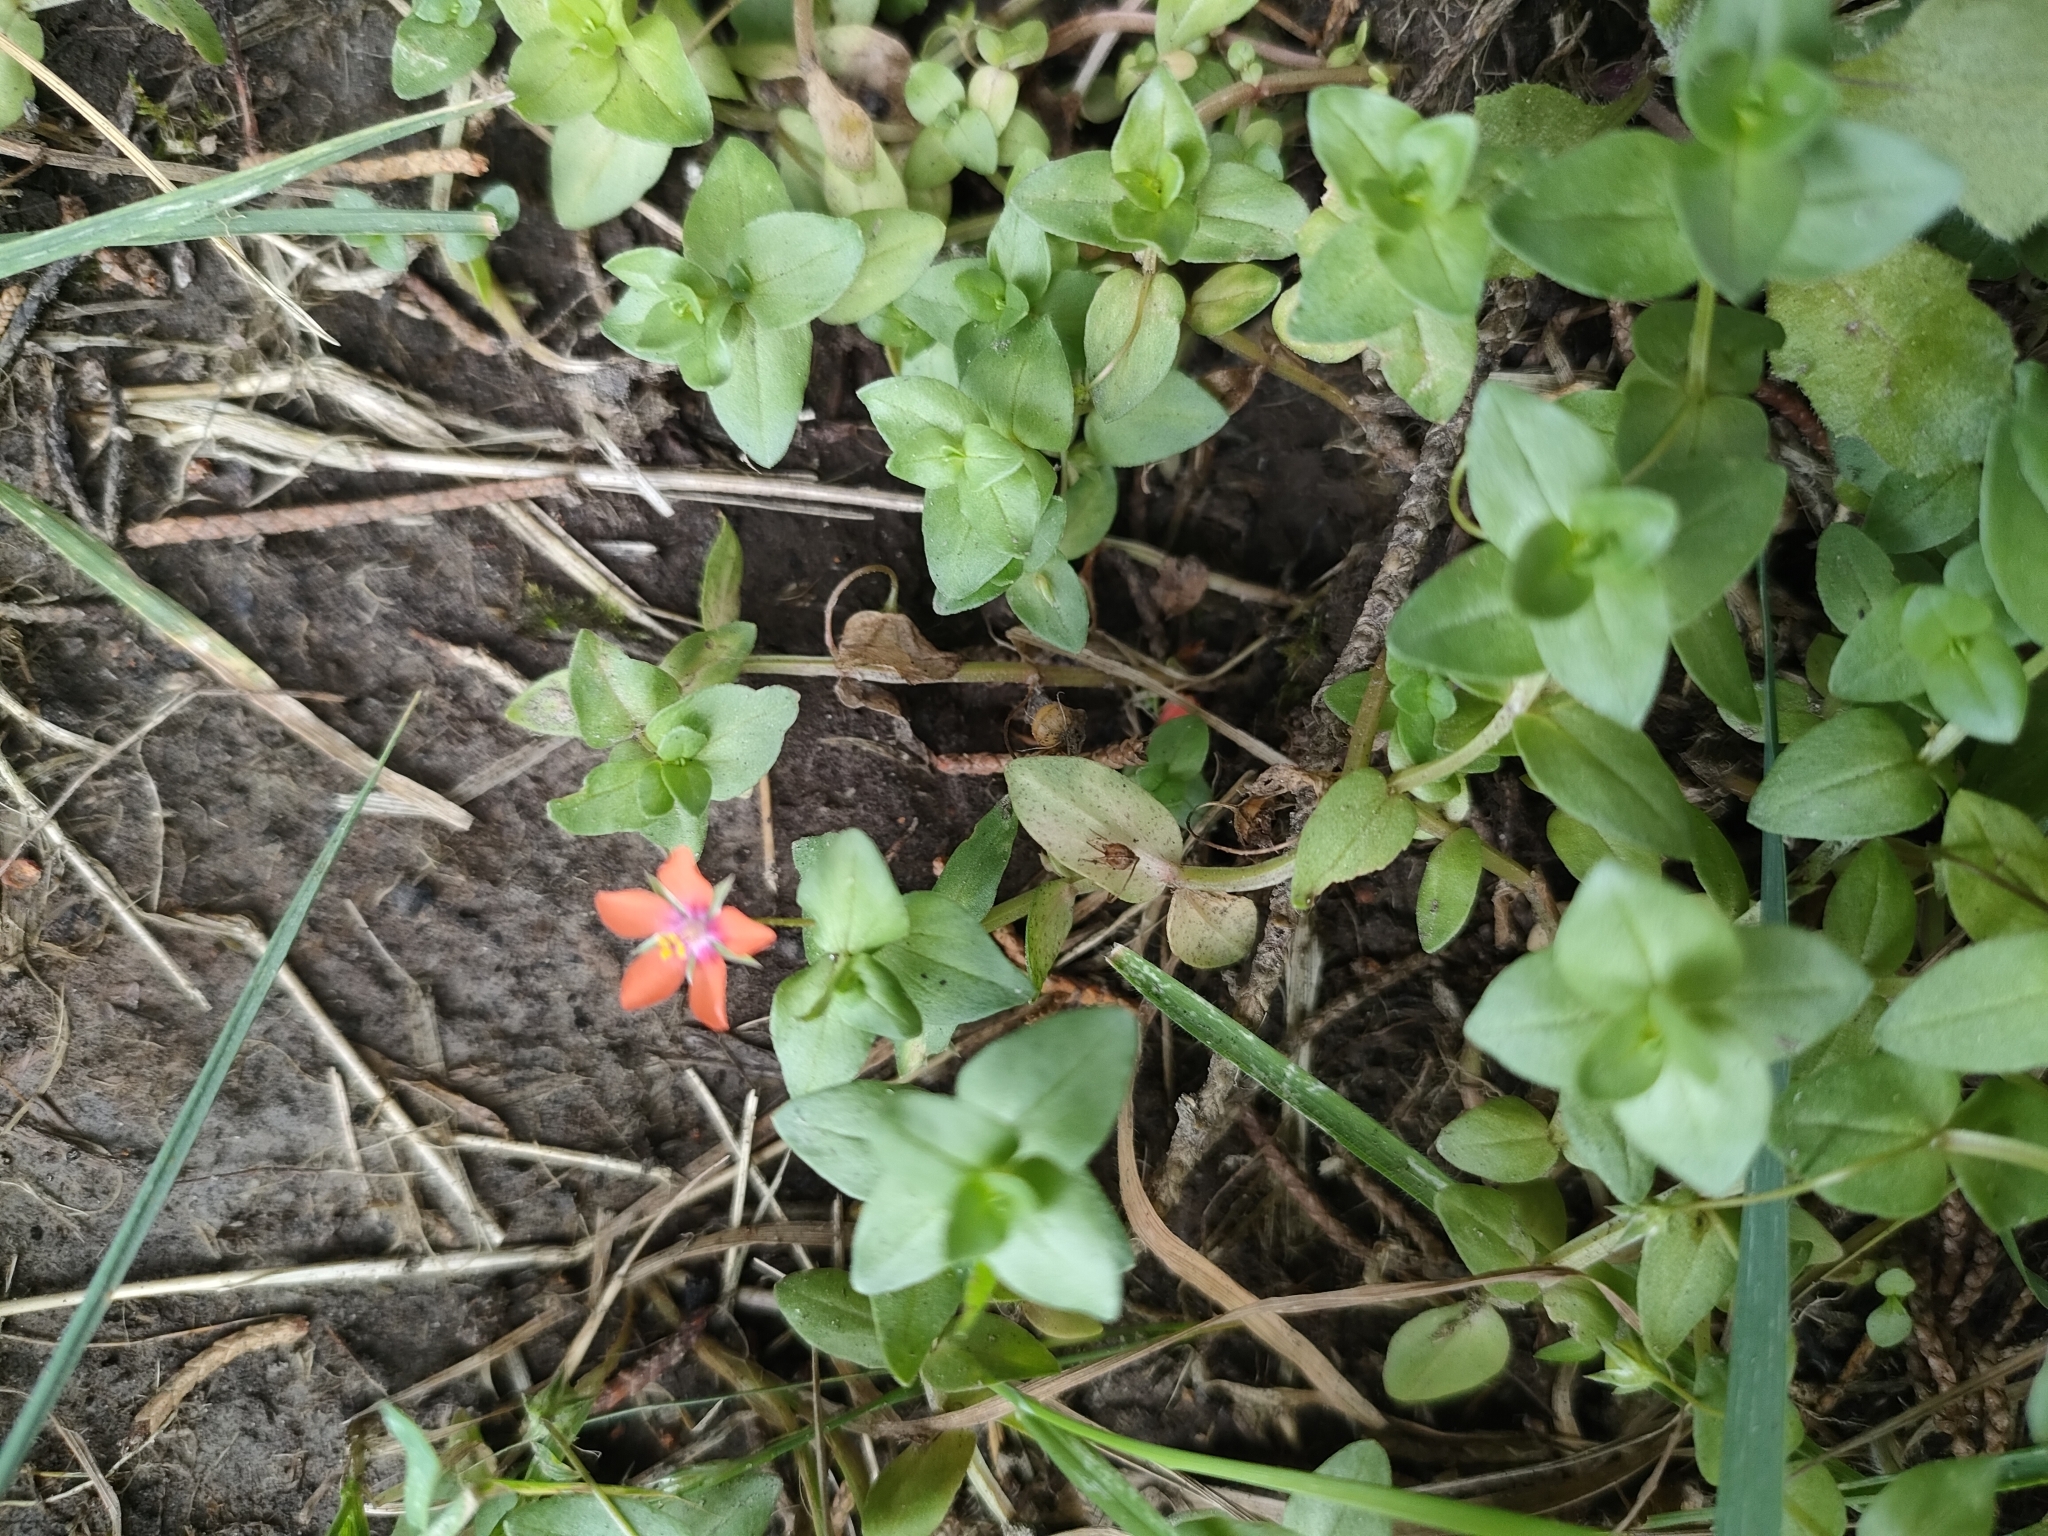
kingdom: Plantae
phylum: Tracheophyta
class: Magnoliopsida
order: Ericales
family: Primulaceae
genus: Lysimachia
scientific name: Lysimachia arvensis
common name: Scarlet pimpernel
